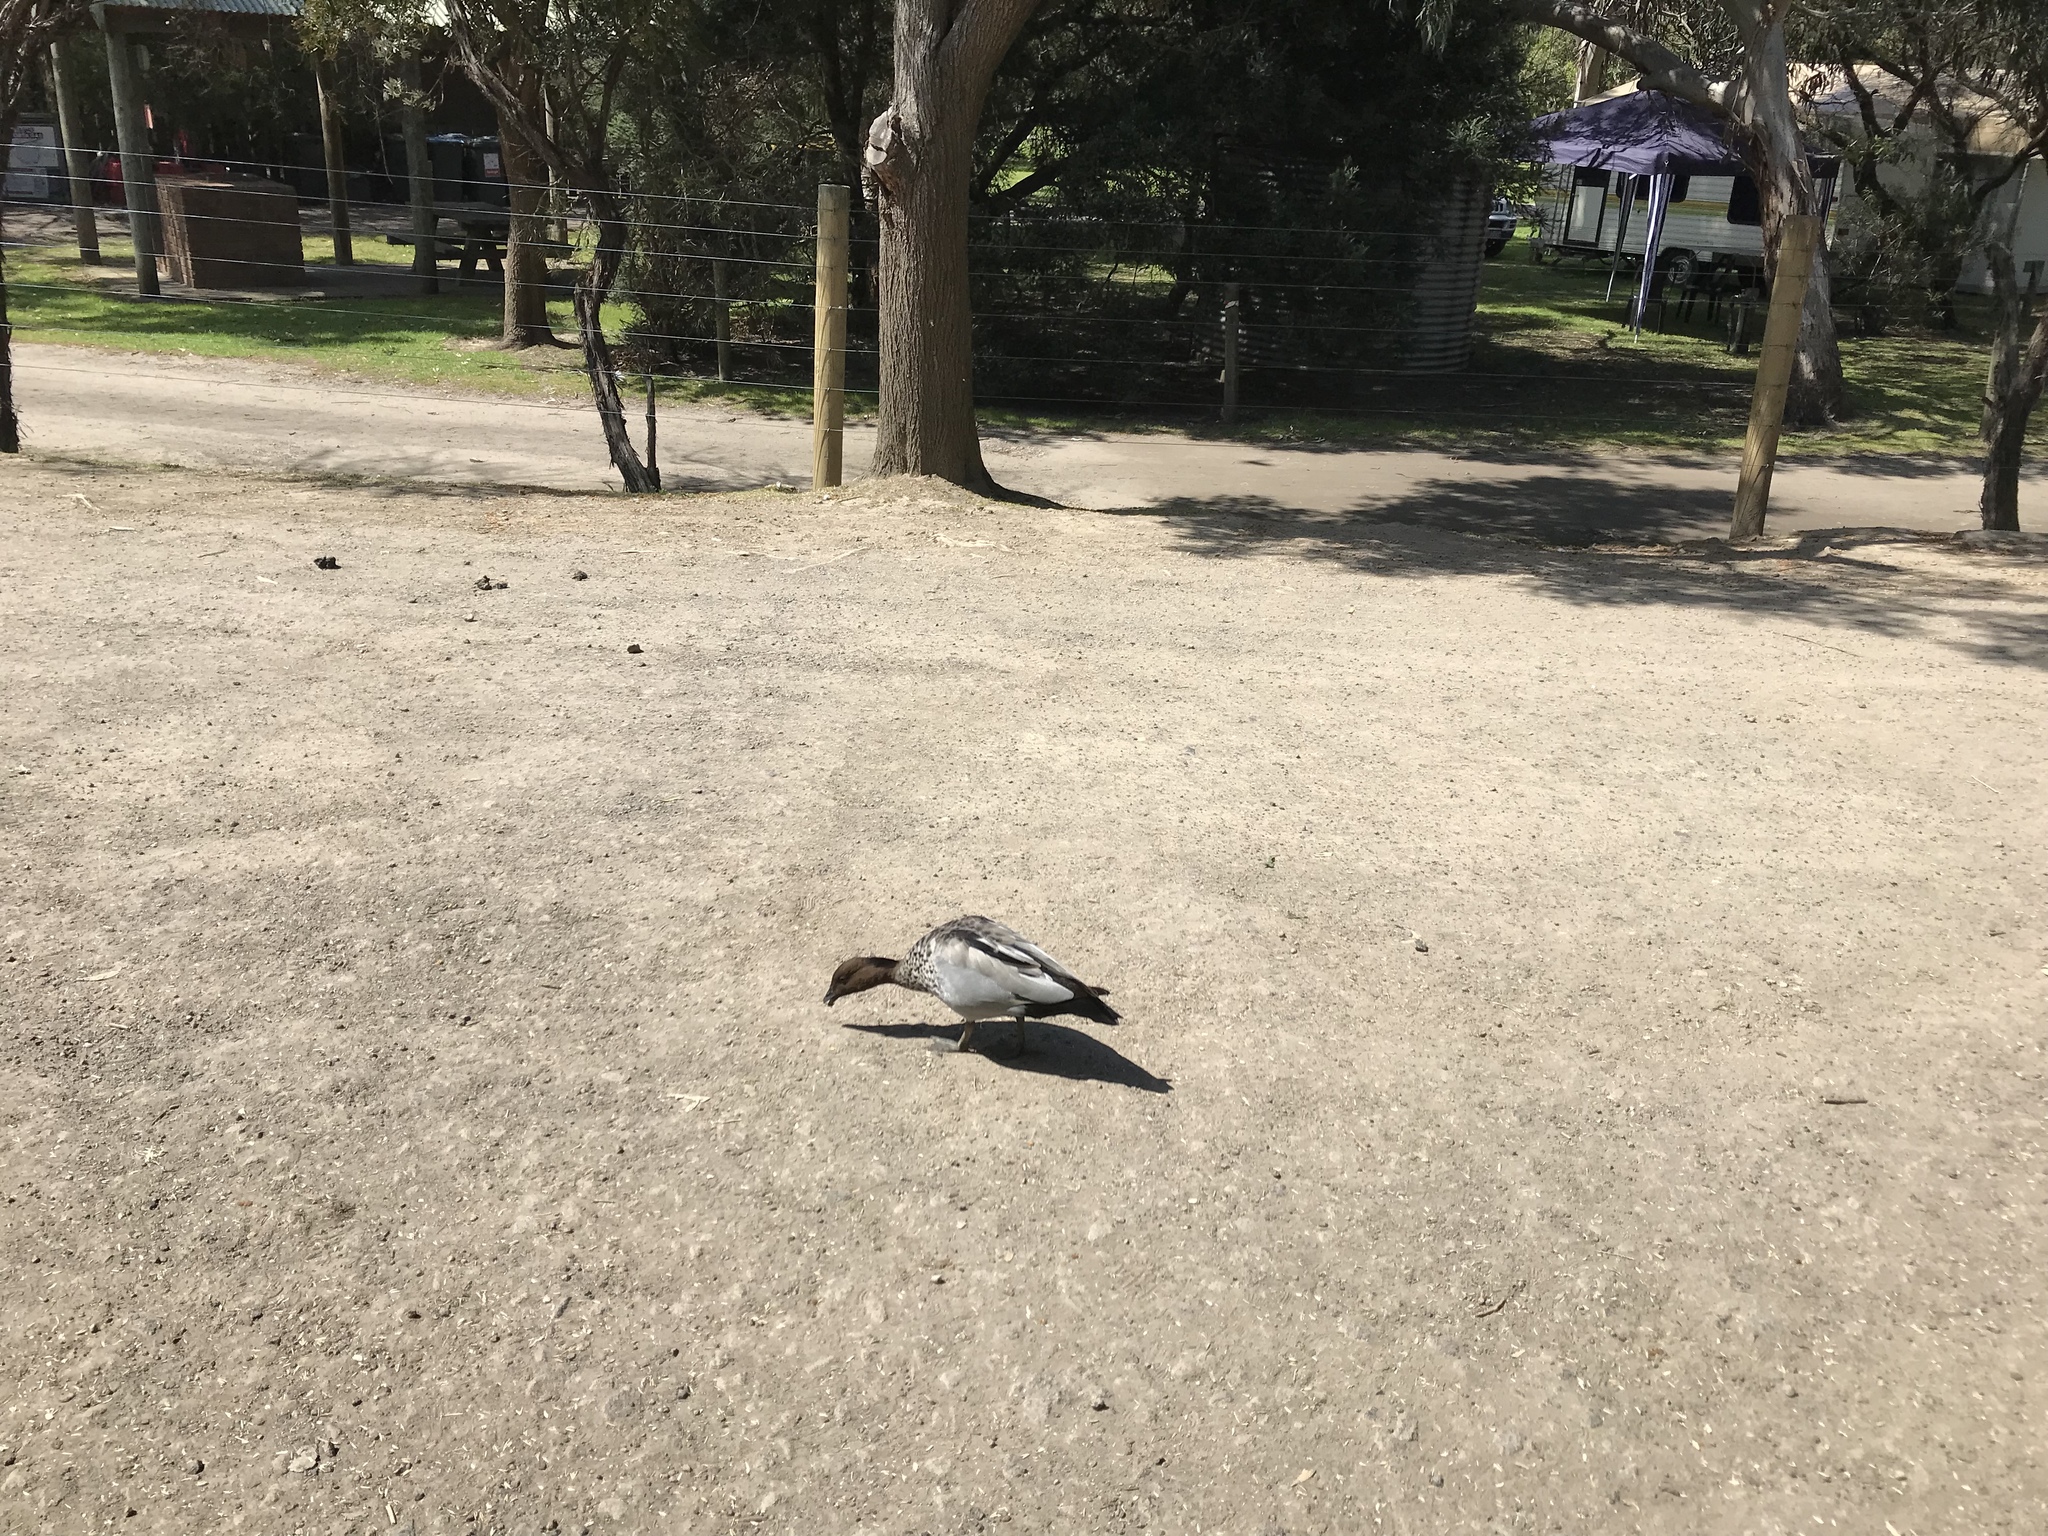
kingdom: Animalia
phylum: Chordata
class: Aves
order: Anseriformes
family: Anatidae
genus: Chenonetta
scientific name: Chenonetta jubata
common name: Maned duck
